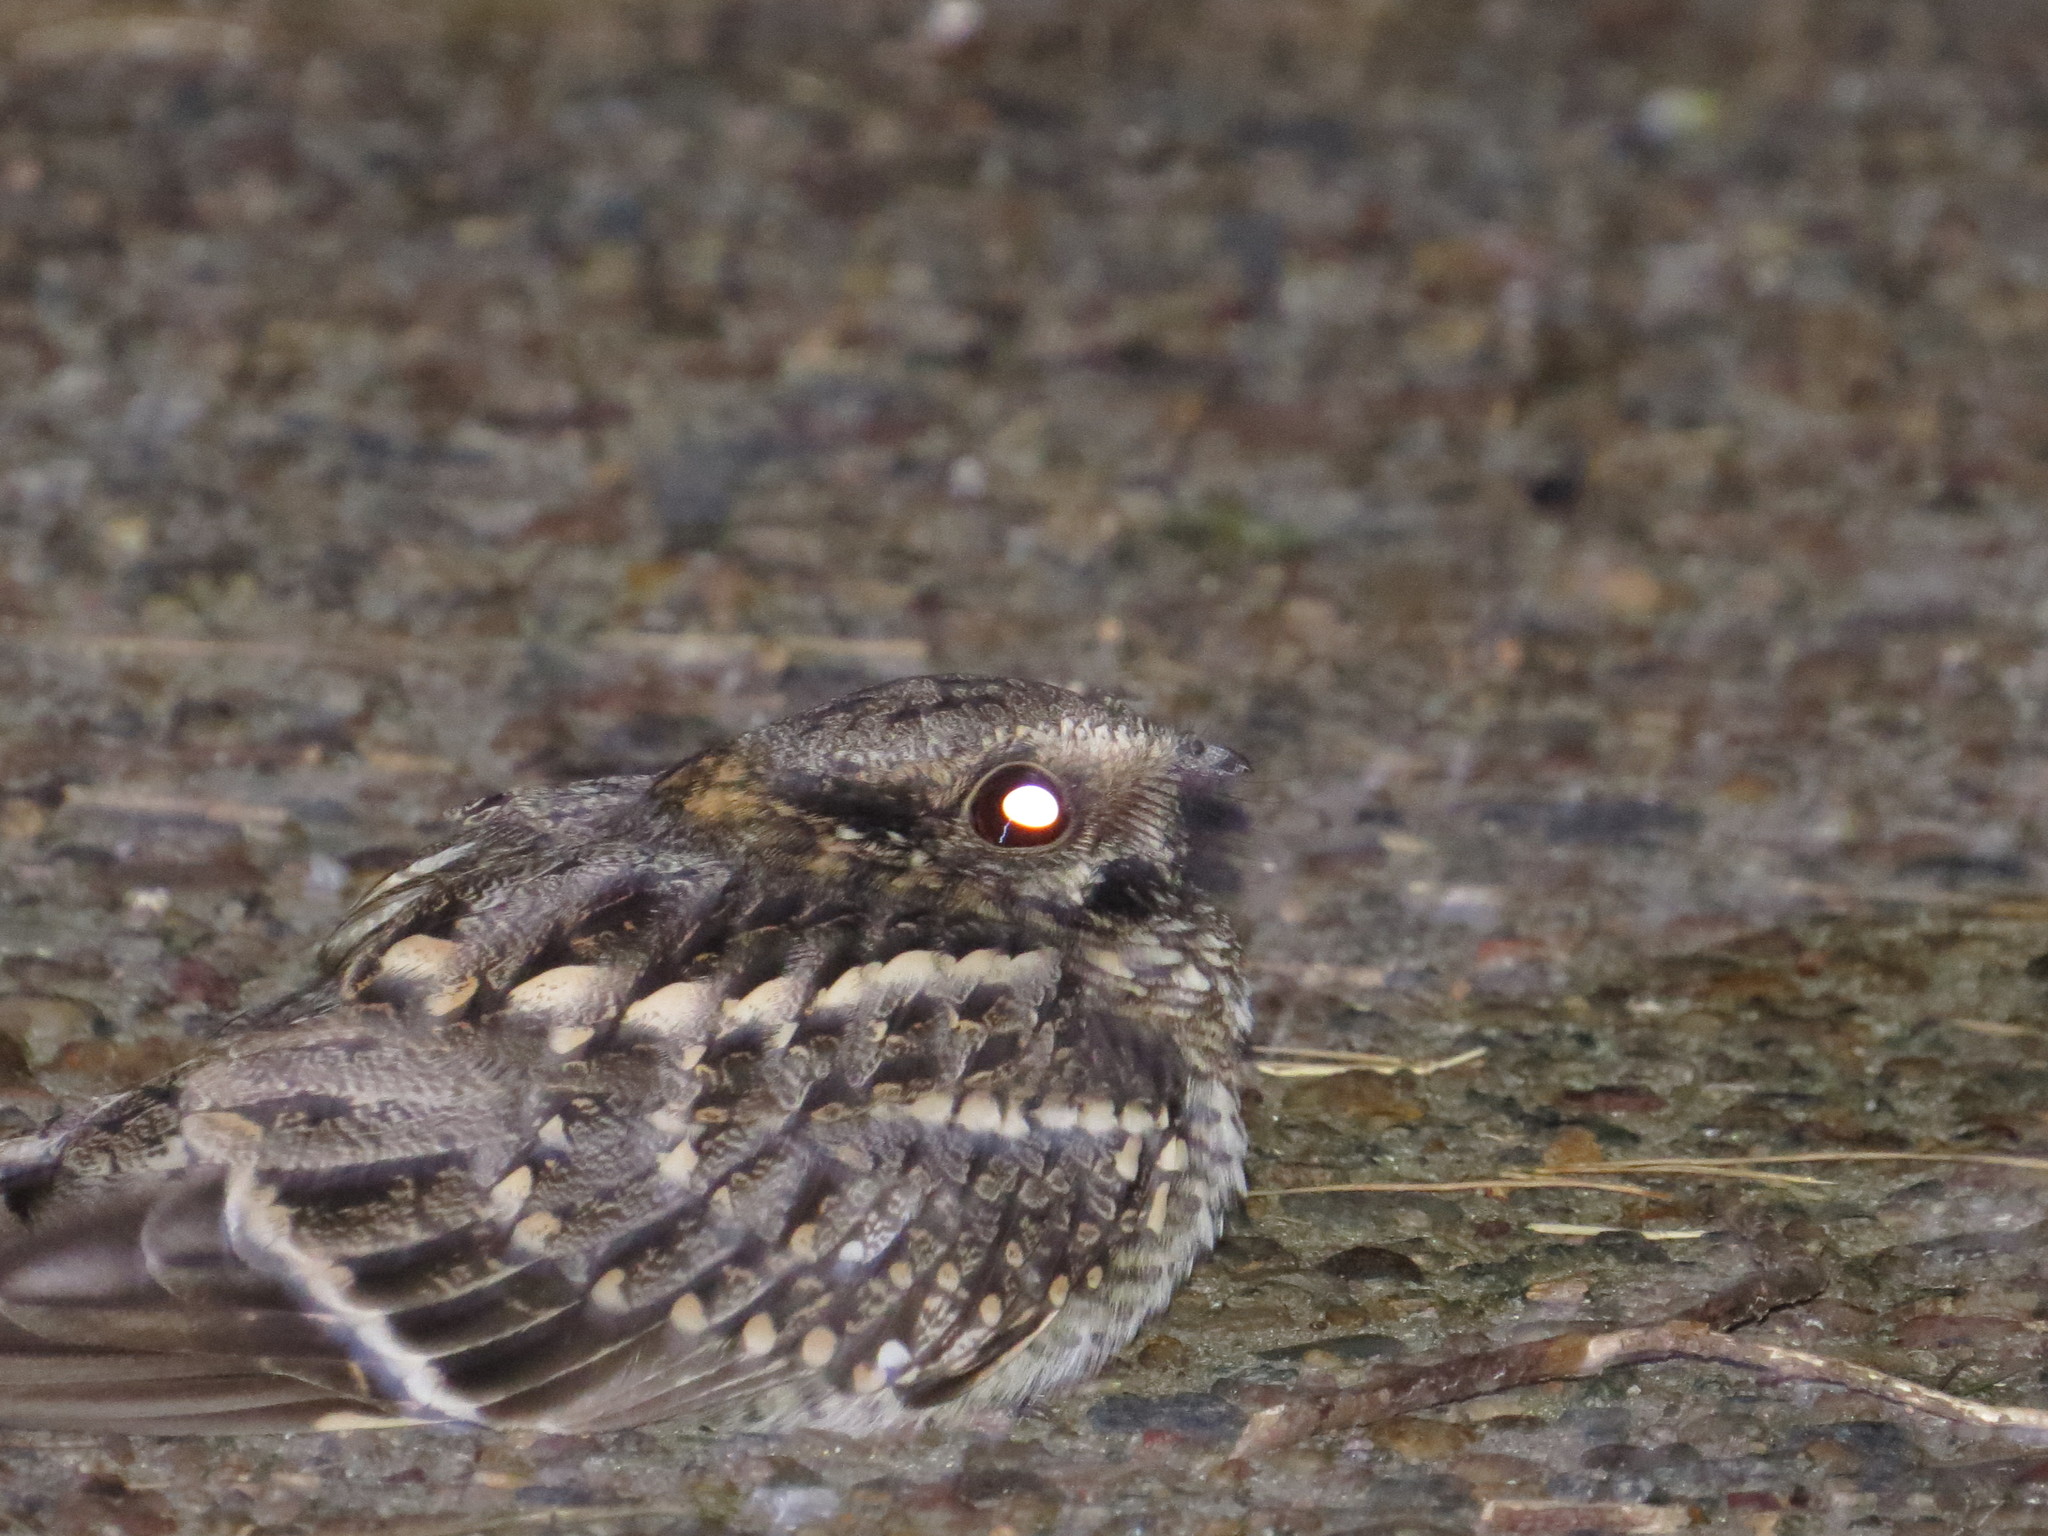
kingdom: Animalia
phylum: Chordata
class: Aves
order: Caprimulgiformes
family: Caprimulgidae
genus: Hydropsalis
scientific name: Hydropsalis torquata
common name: Scissor-tailed nightjar
